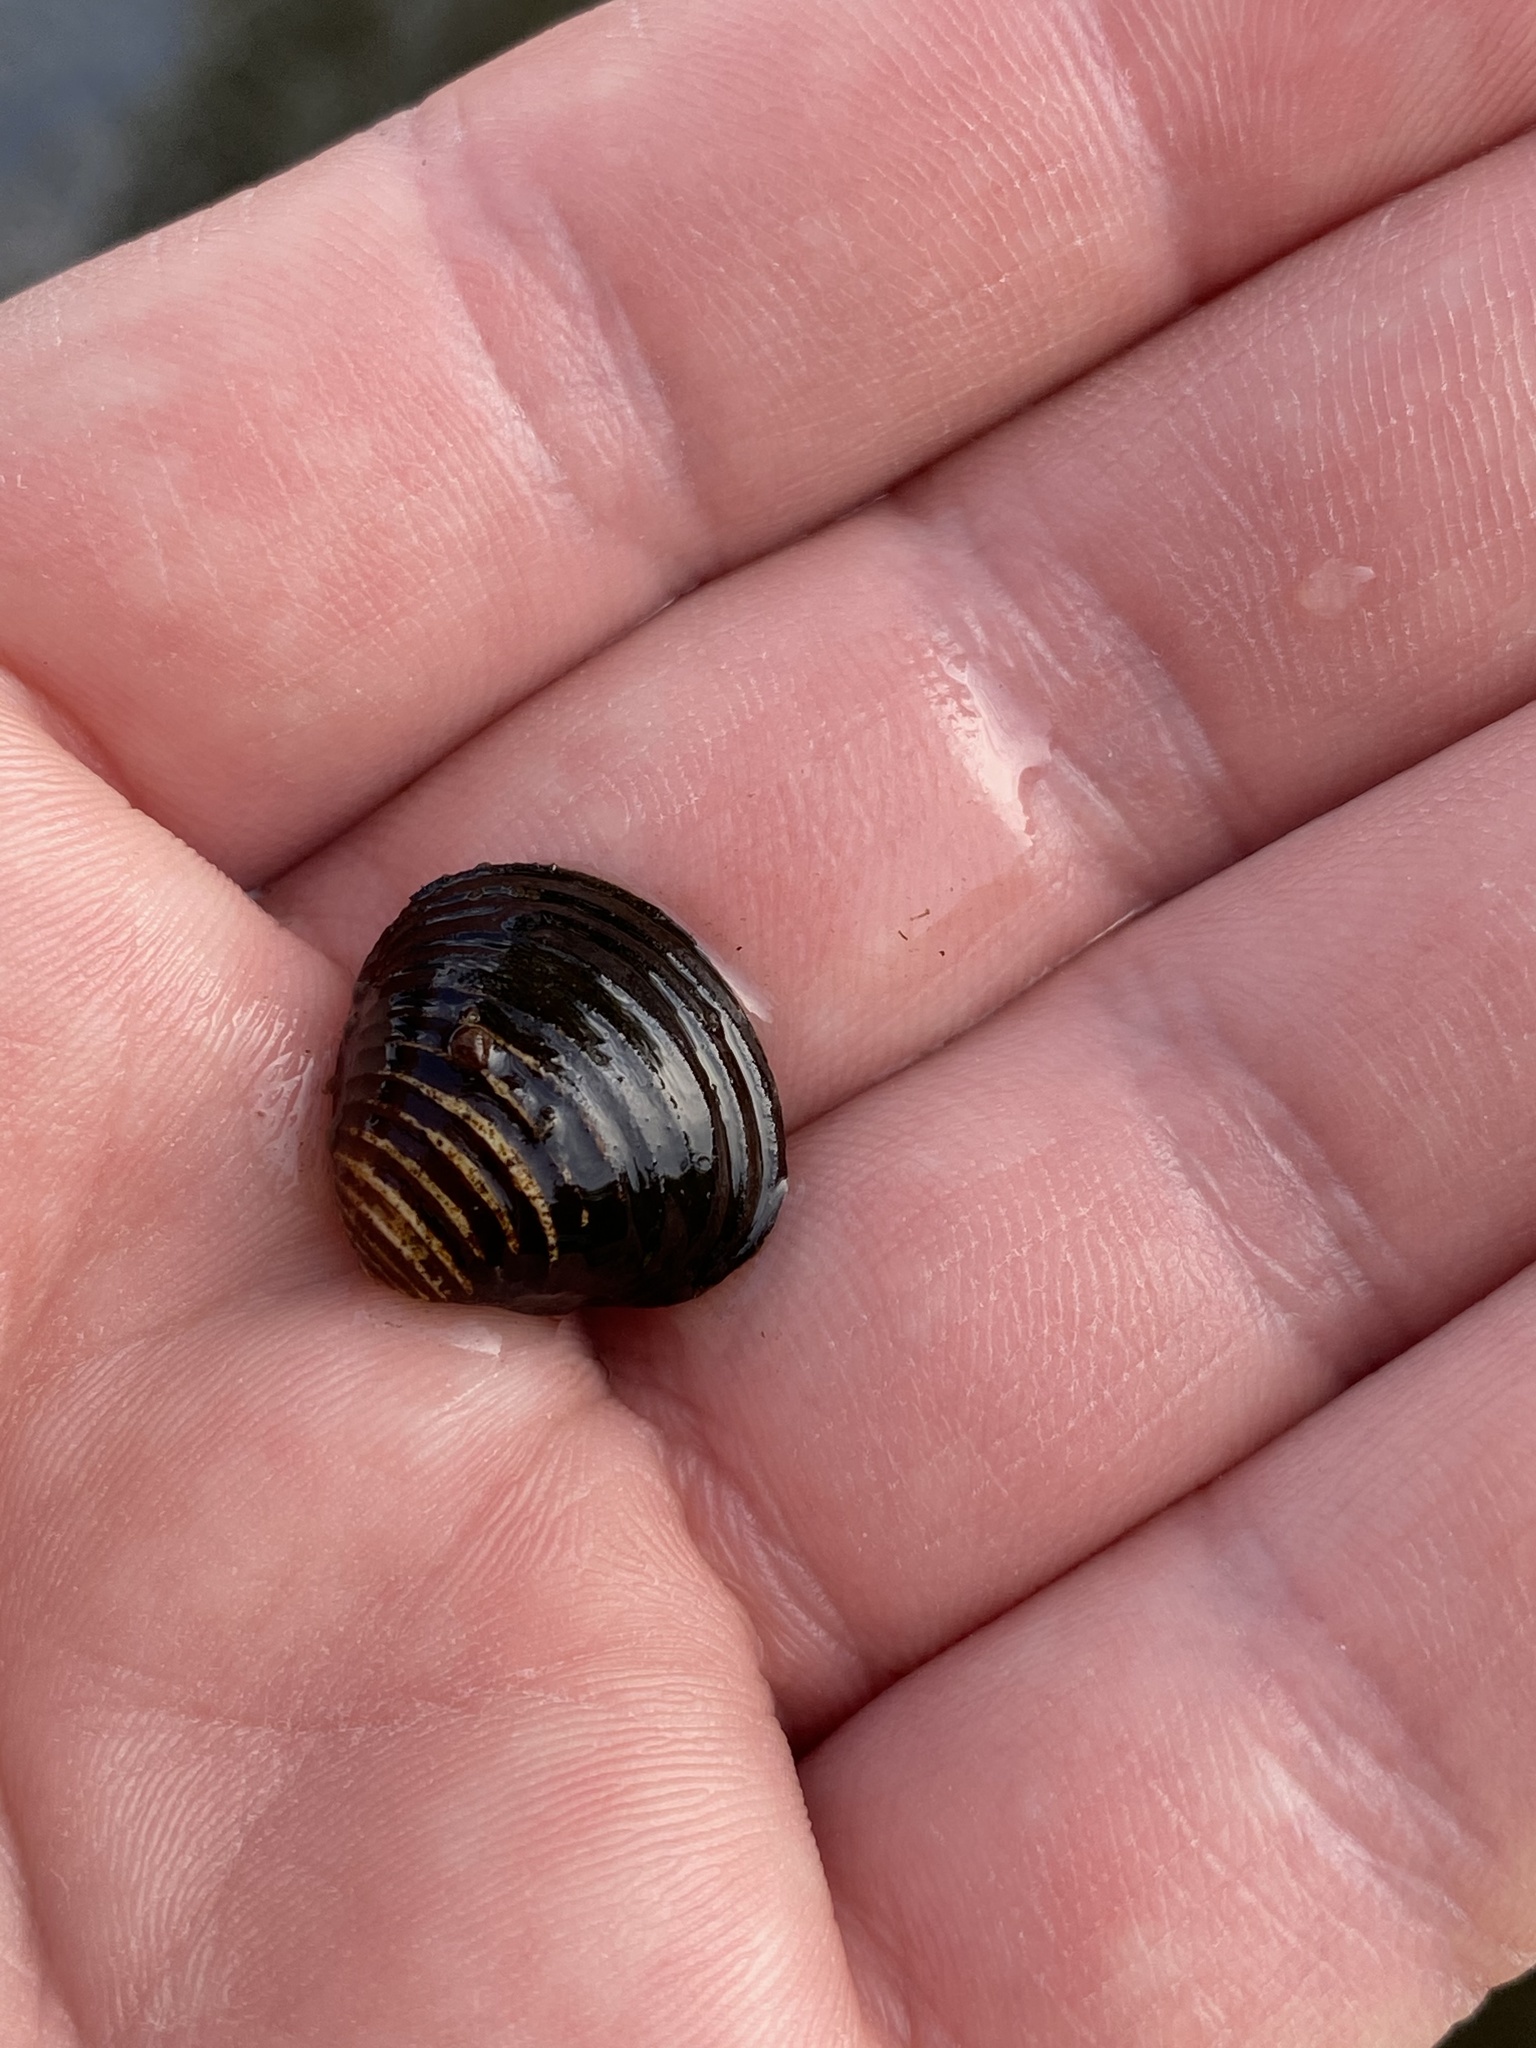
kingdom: Animalia
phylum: Mollusca
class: Bivalvia
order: Venerida
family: Cyrenidae
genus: Corbicula
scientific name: Corbicula fluminea
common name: Asian clam
